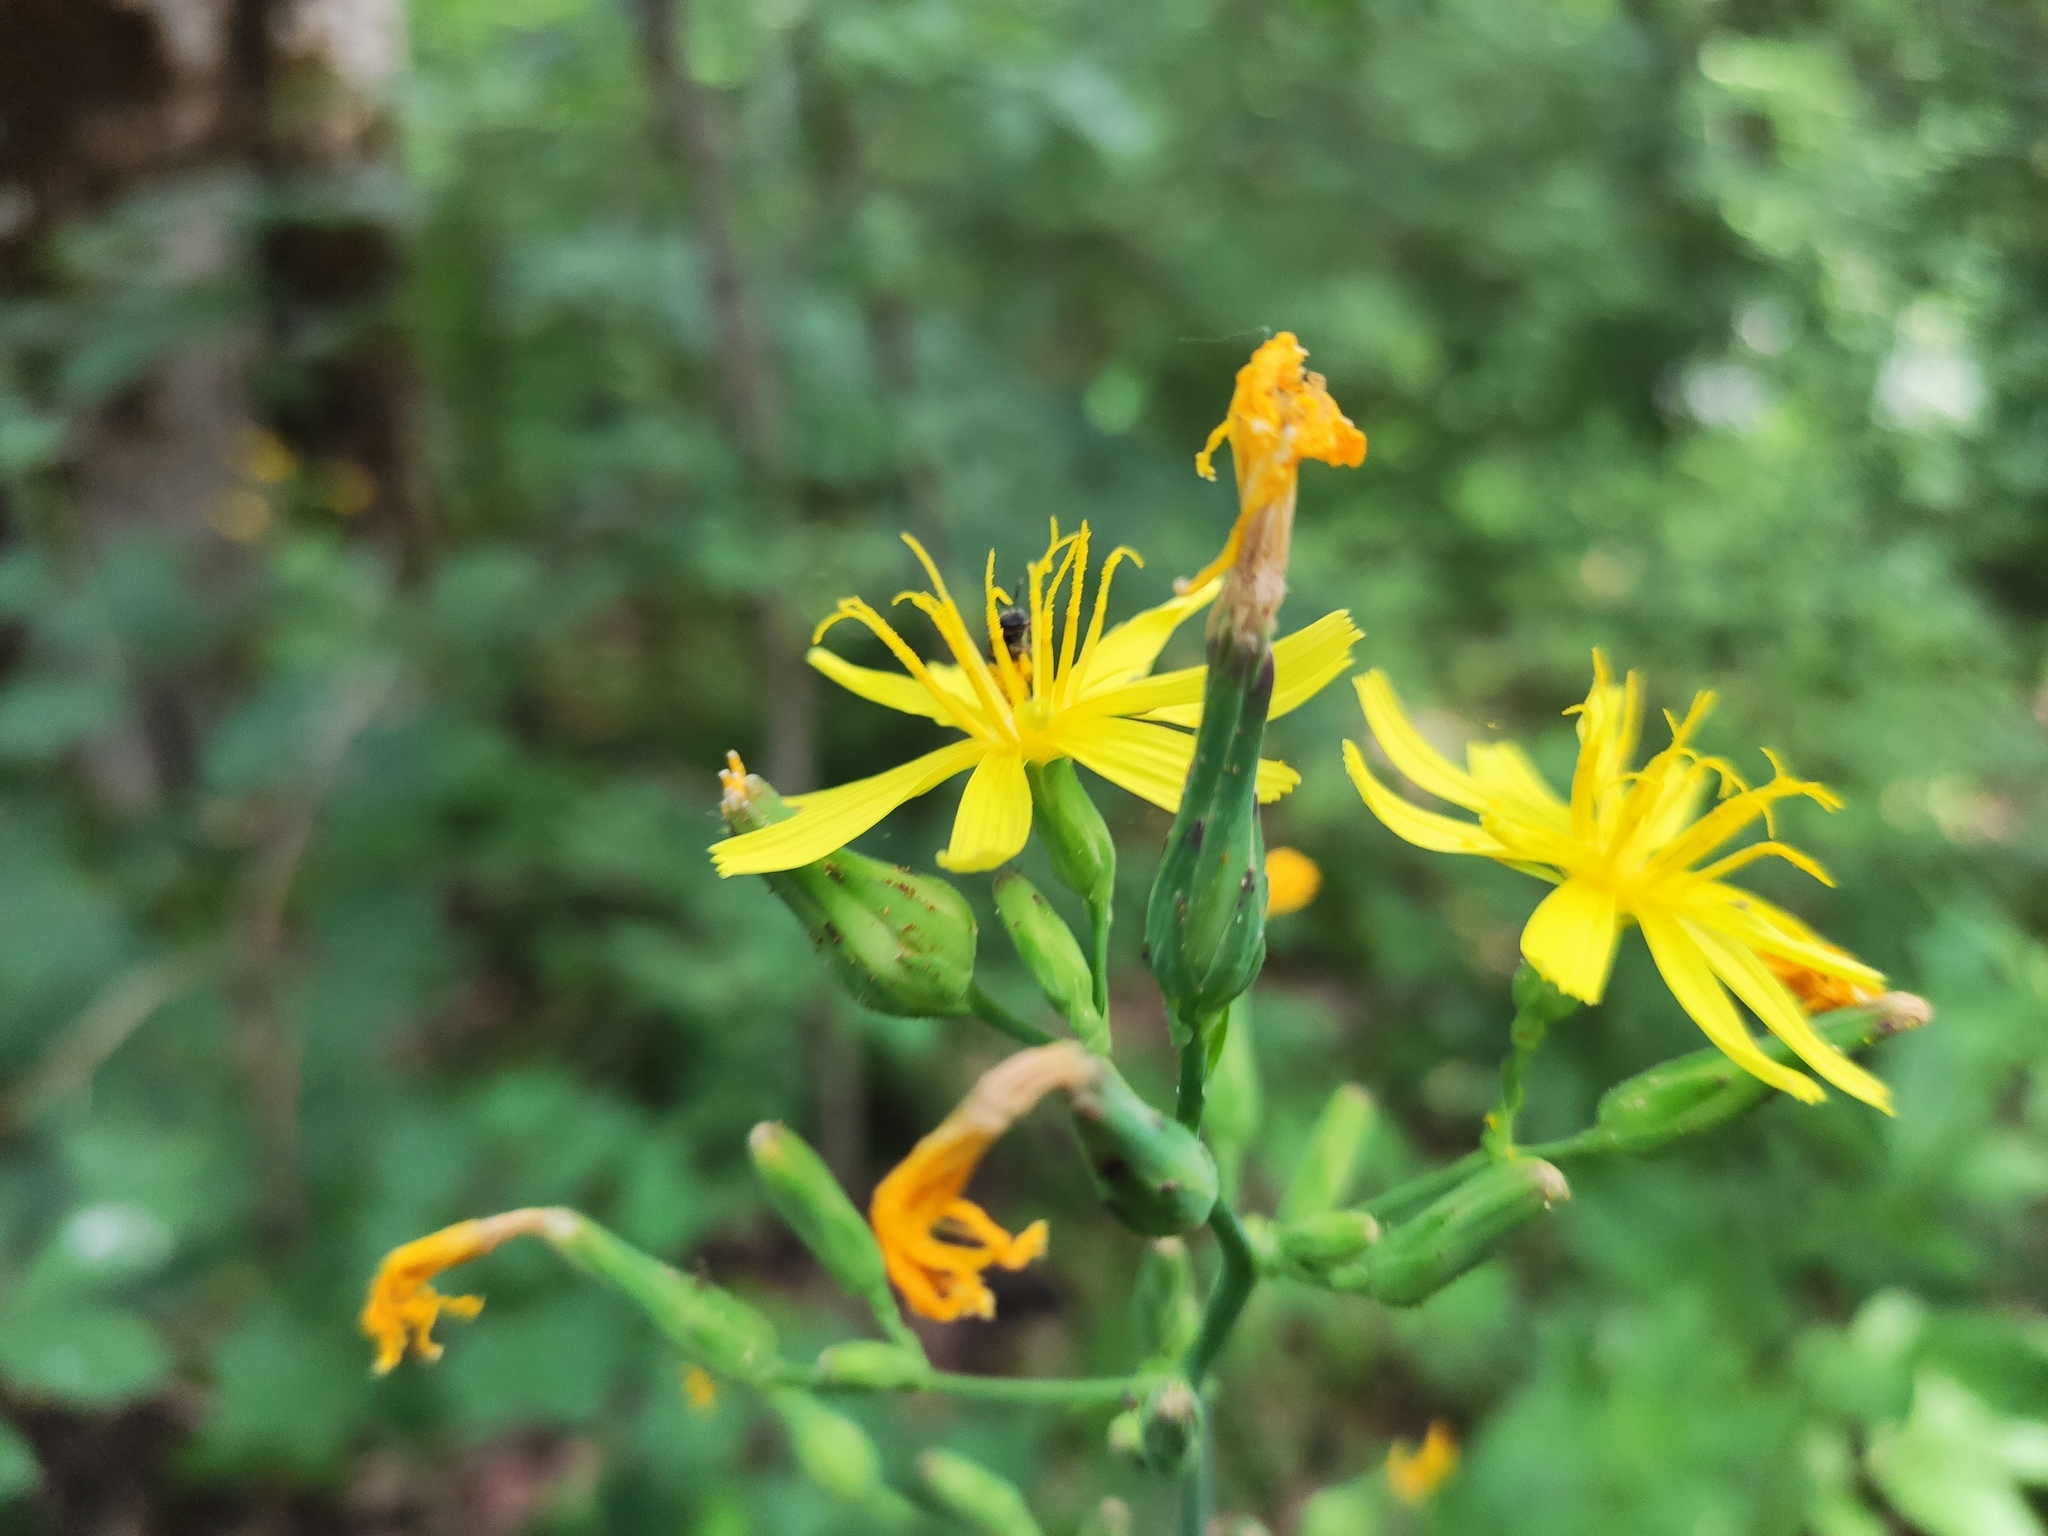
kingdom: Plantae
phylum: Tracheophyta
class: Magnoliopsida
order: Asterales
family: Asteraceae
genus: Lactuca
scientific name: Lactuca quercina
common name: Wild lettuce
